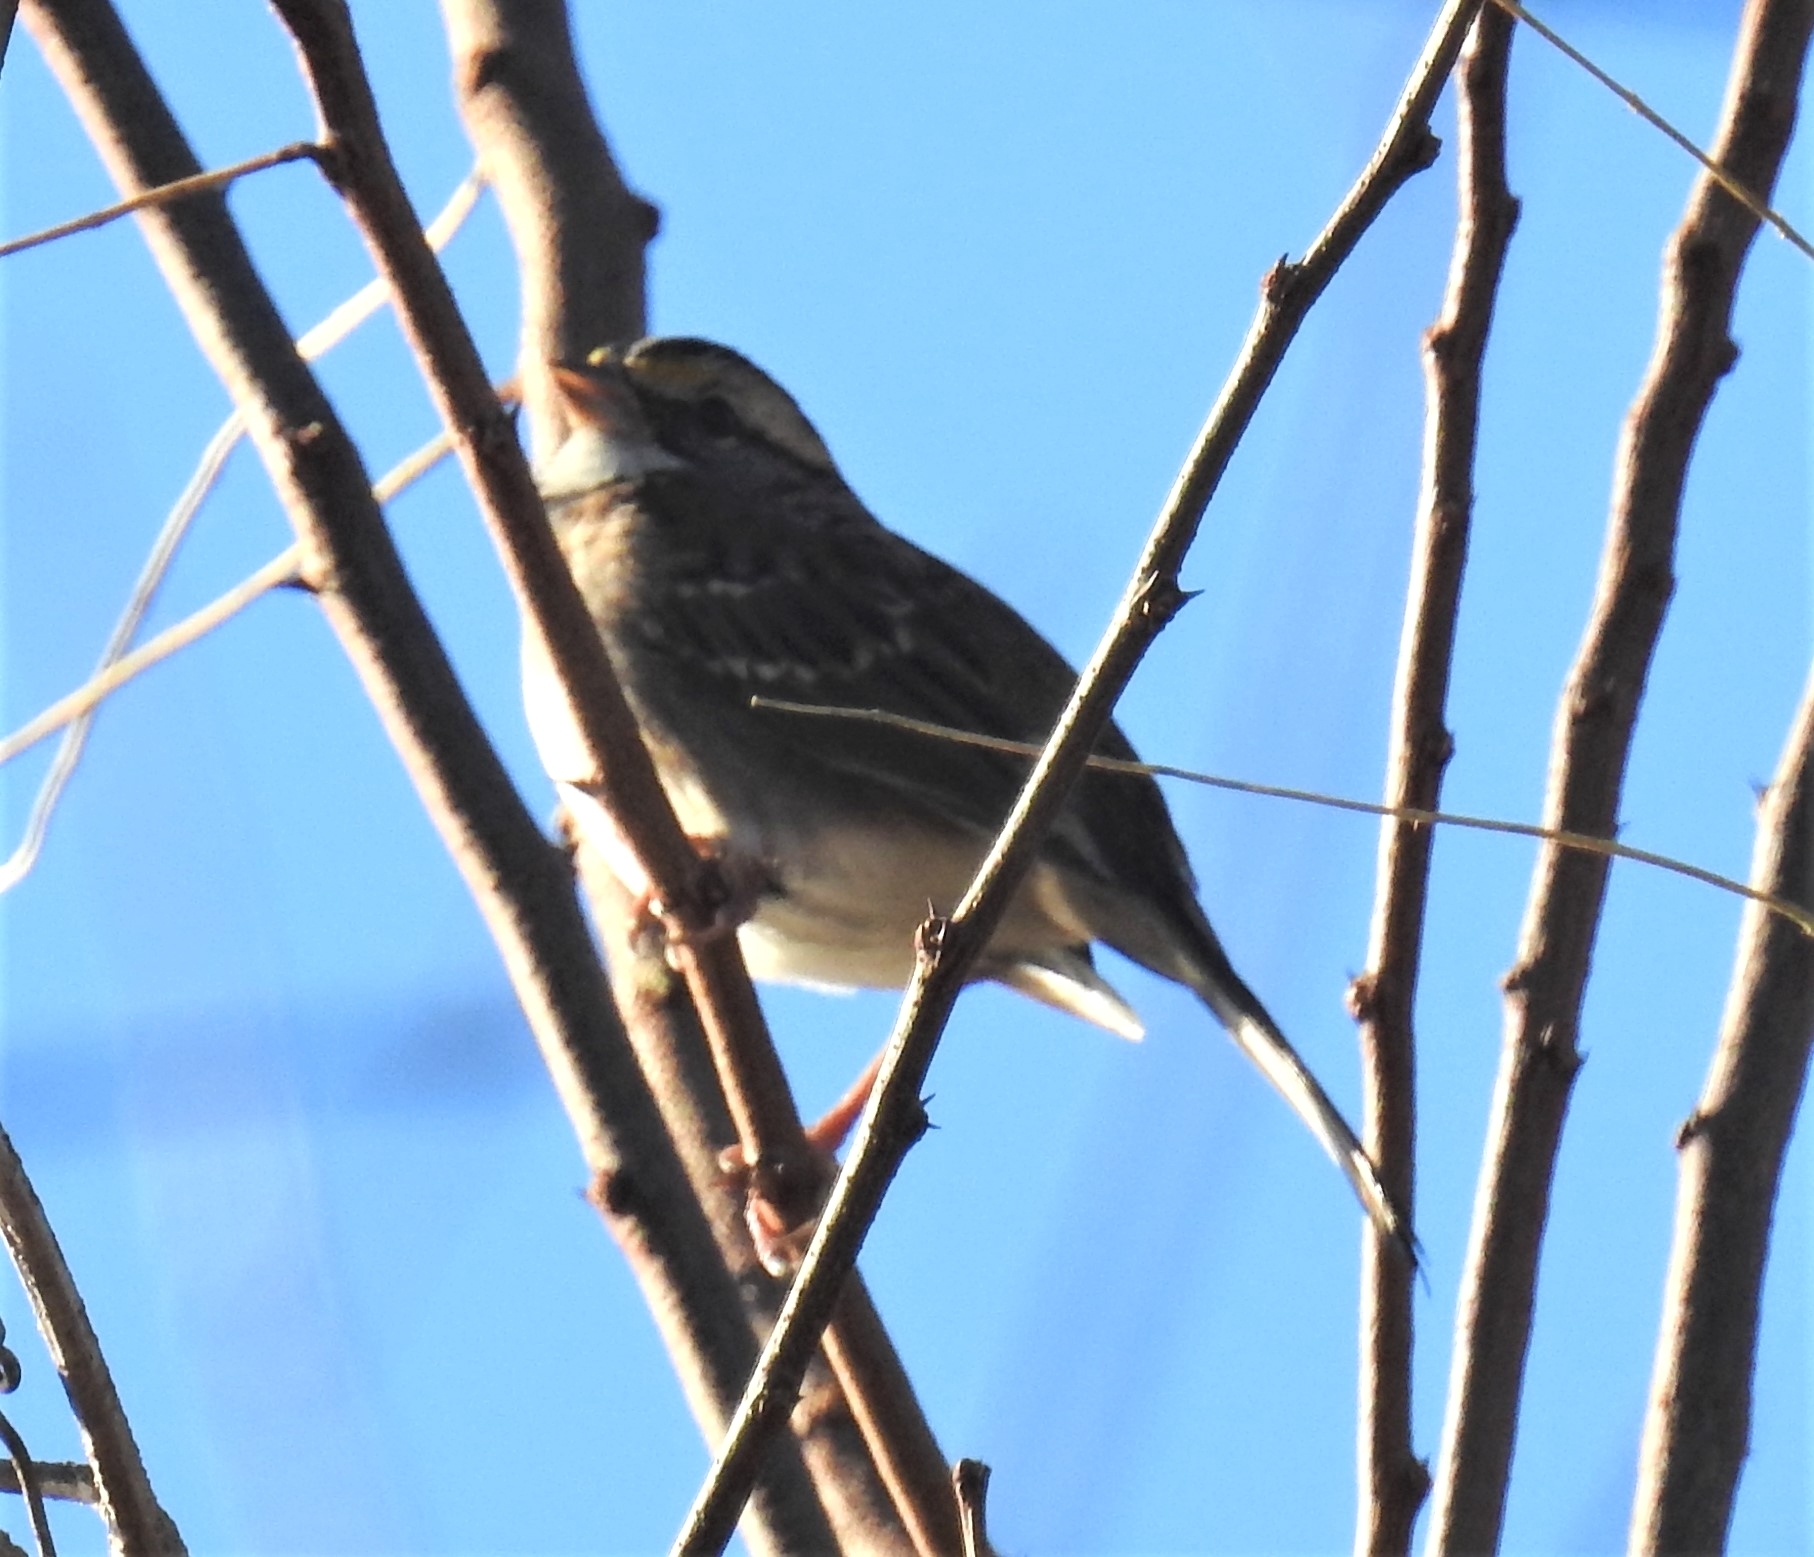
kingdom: Animalia
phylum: Chordata
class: Aves
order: Passeriformes
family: Passerellidae
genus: Zonotrichia
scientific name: Zonotrichia albicollis
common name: White-throated sparrow
